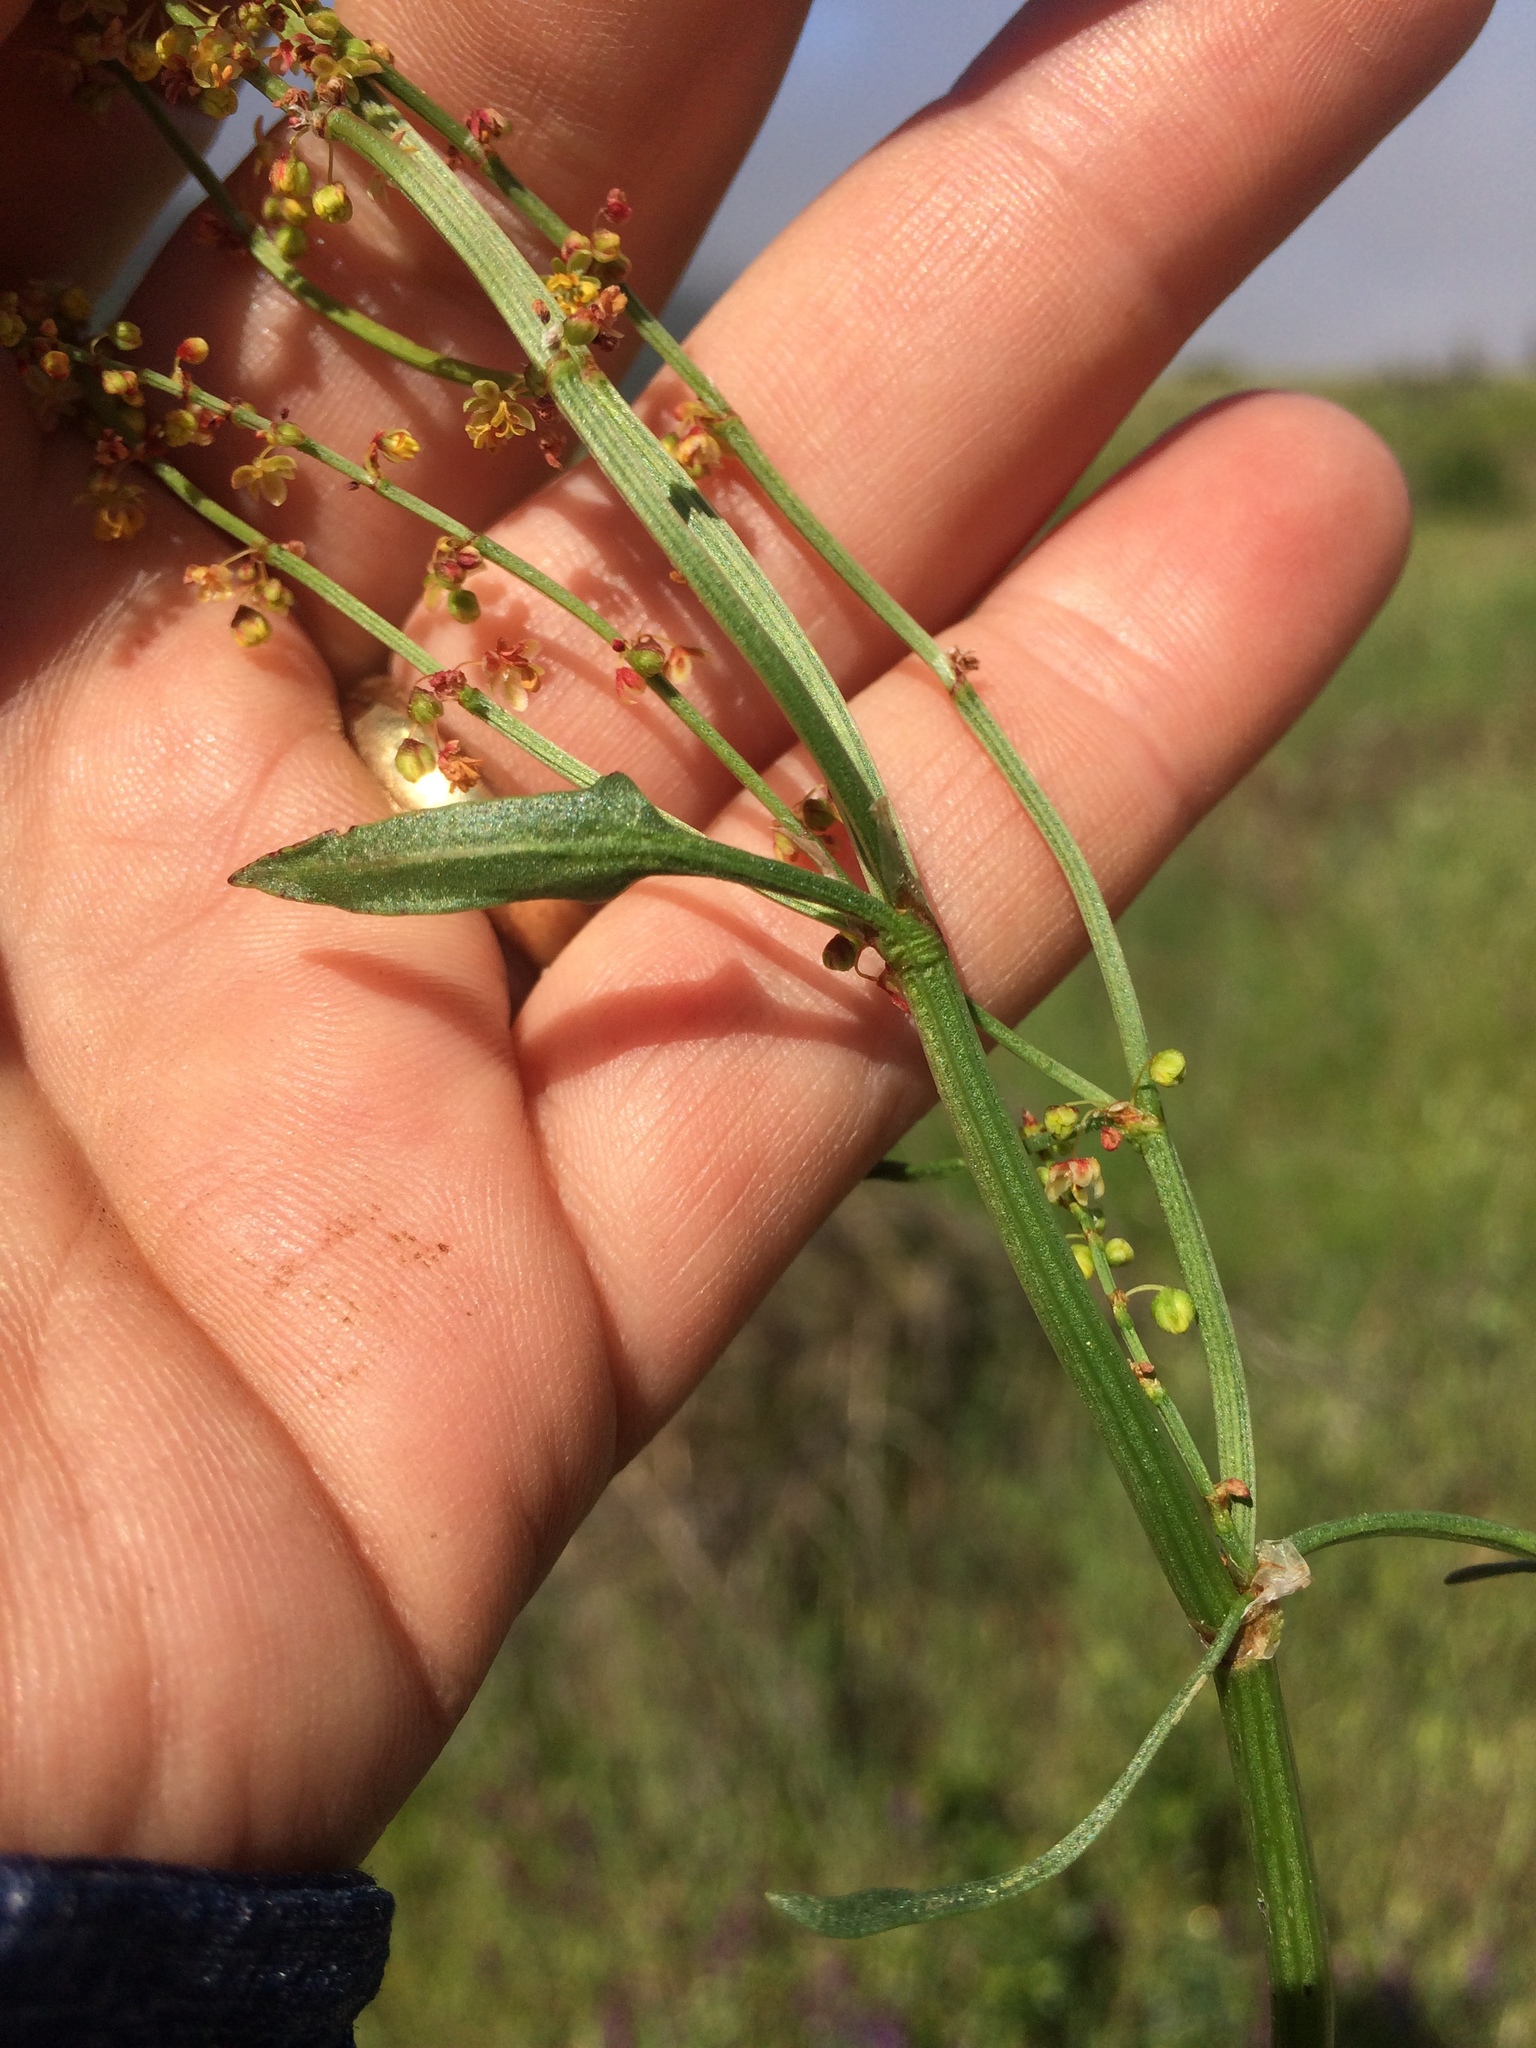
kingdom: Plantae
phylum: Tracheophyta
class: Magnoliopsida
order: Caryophyllales
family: Polygonaceae
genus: Rumex
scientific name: Rumex acetosella
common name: Common sheep sorrel
